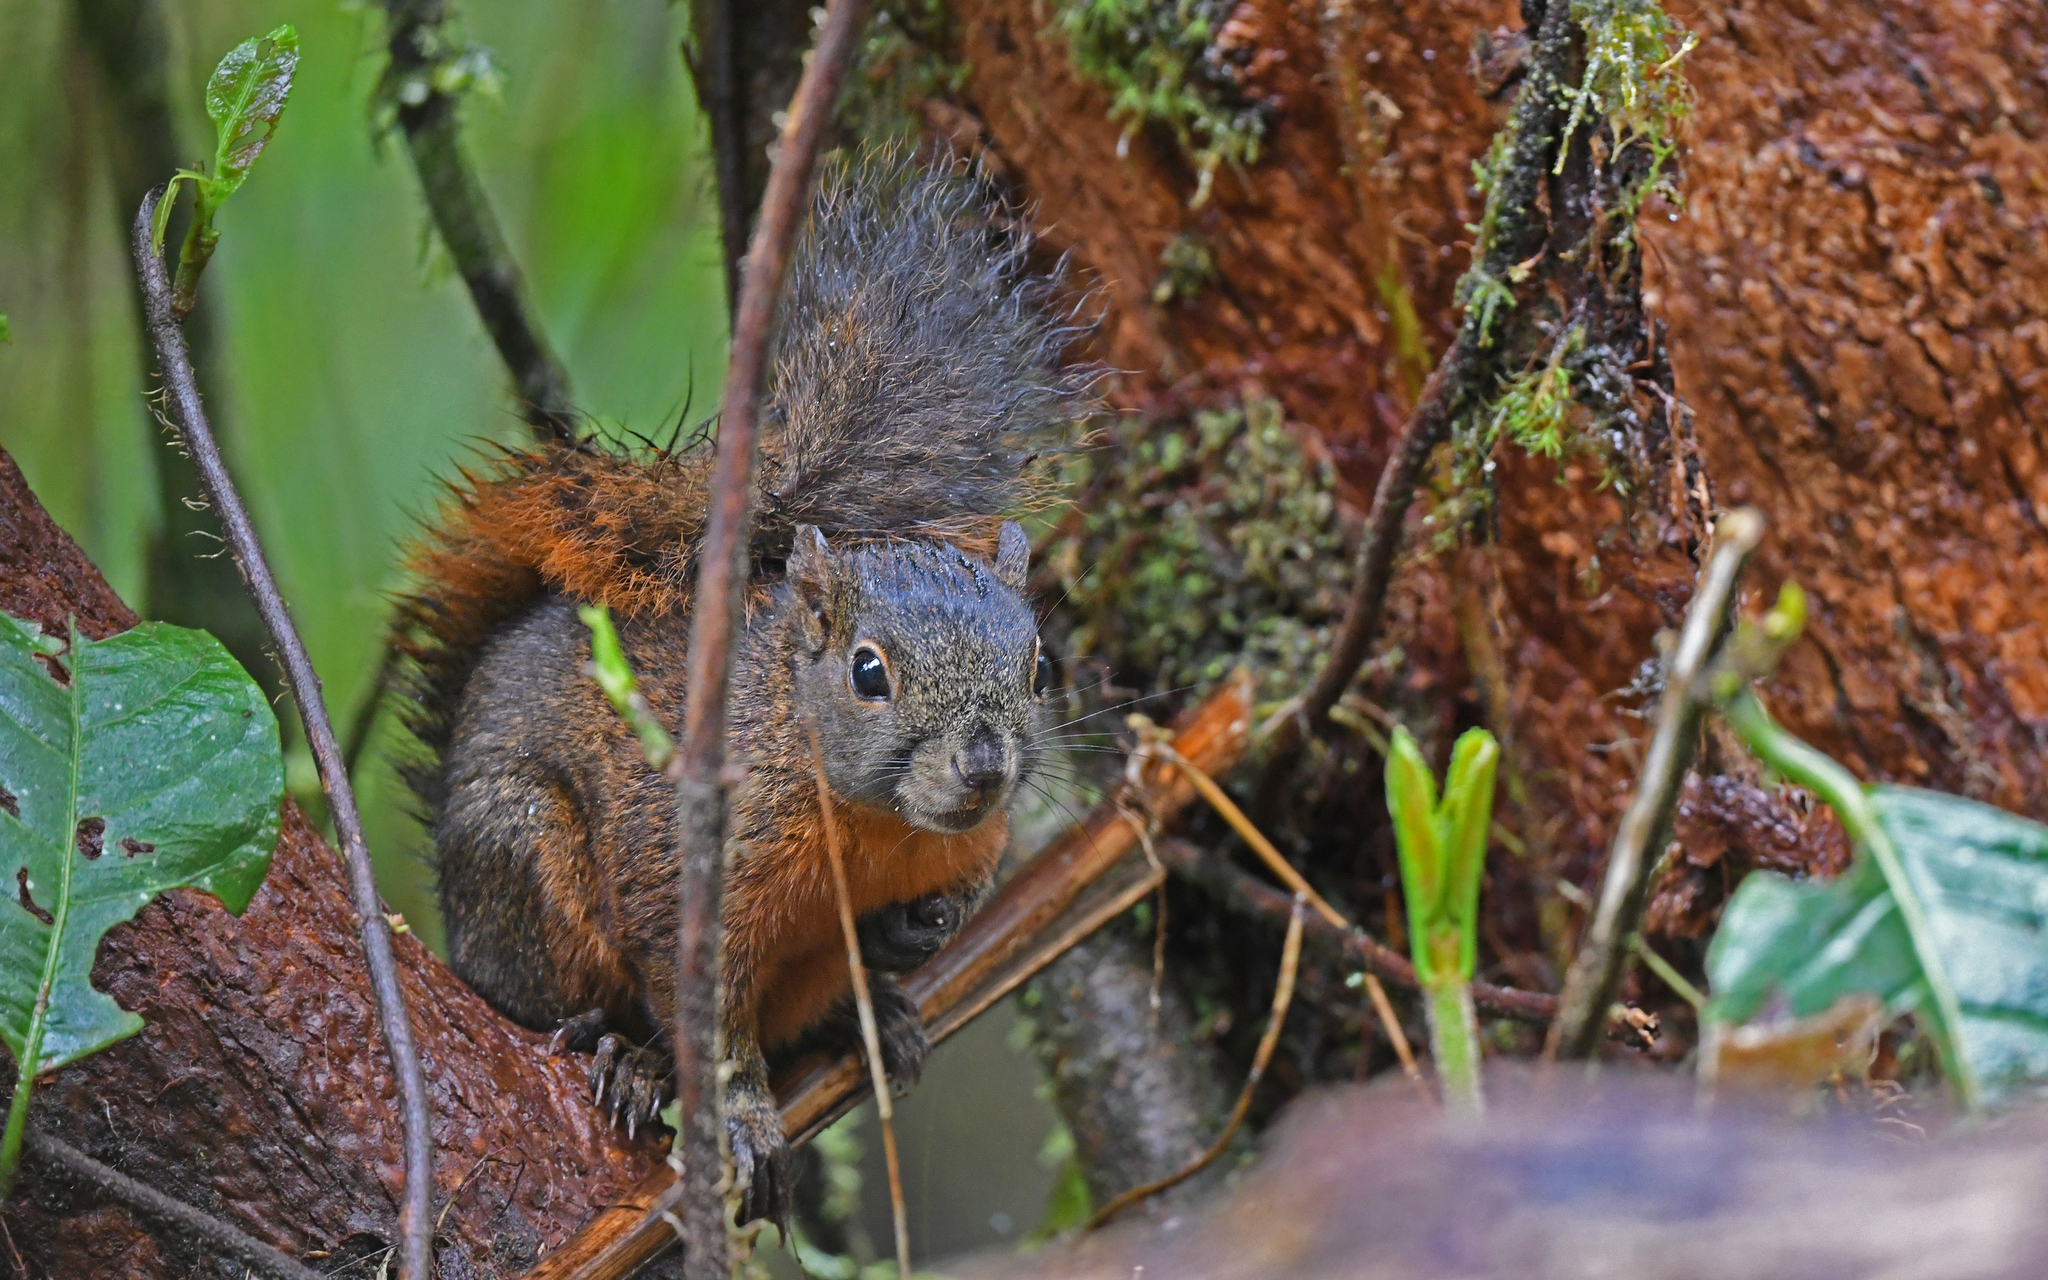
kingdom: Animalia
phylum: Chordata
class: Mammalia
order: Rodentia
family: Sciuridae
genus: Sciurus
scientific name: Sciurus granatensis
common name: Red-tailed squirrel
